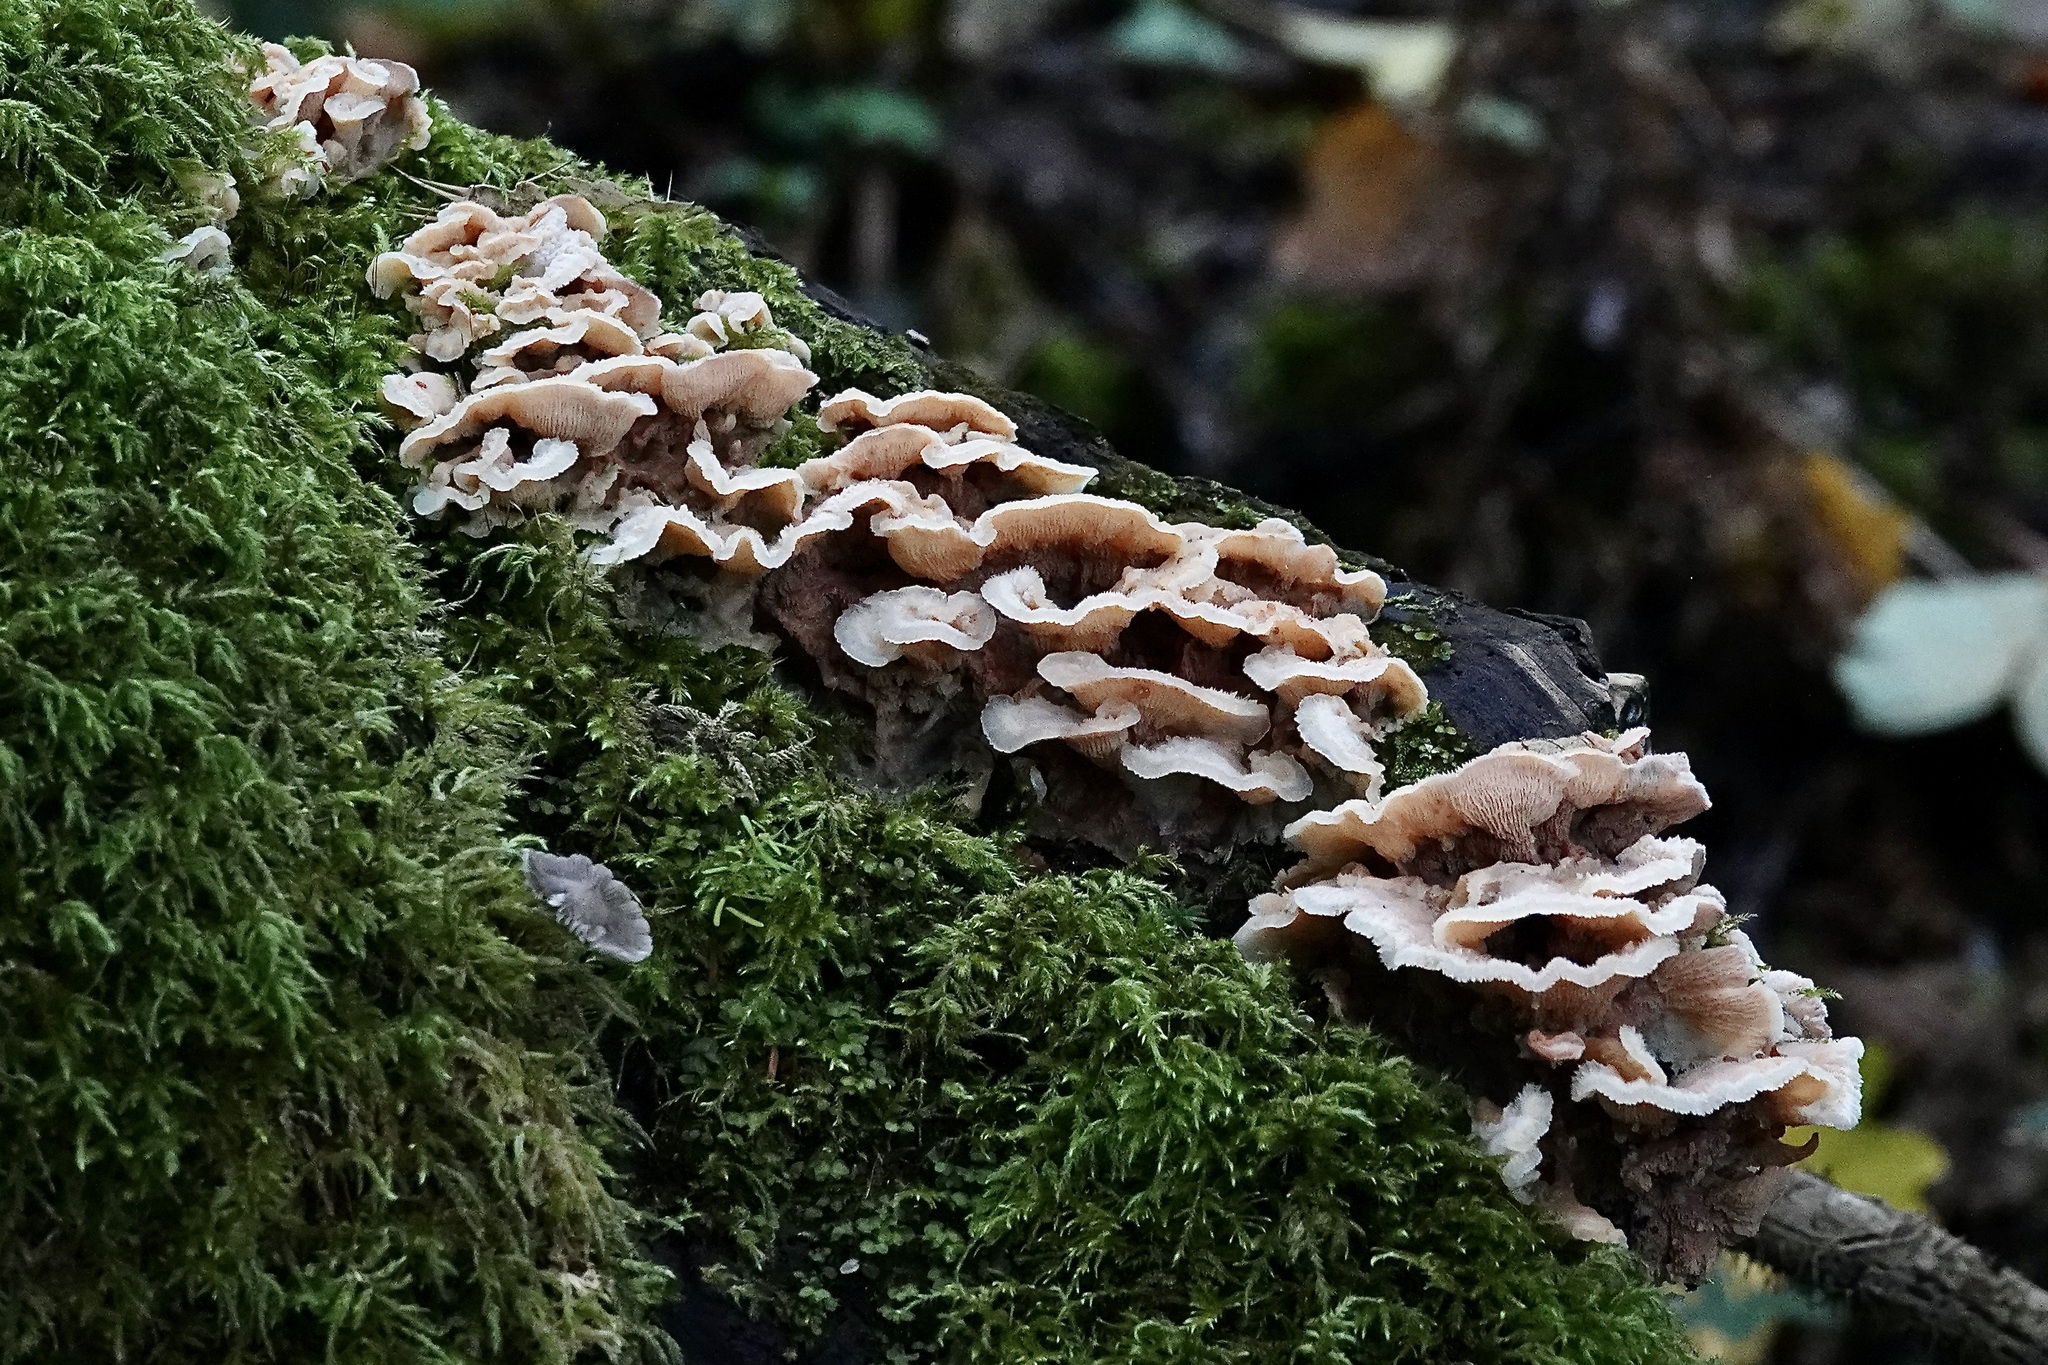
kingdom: Fungi
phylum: Basidiomycota
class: Agaricomycetes
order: Polyporales
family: Meruliaceae
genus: Phlebia
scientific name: Phlebia tremellosa
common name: Jelly rot
